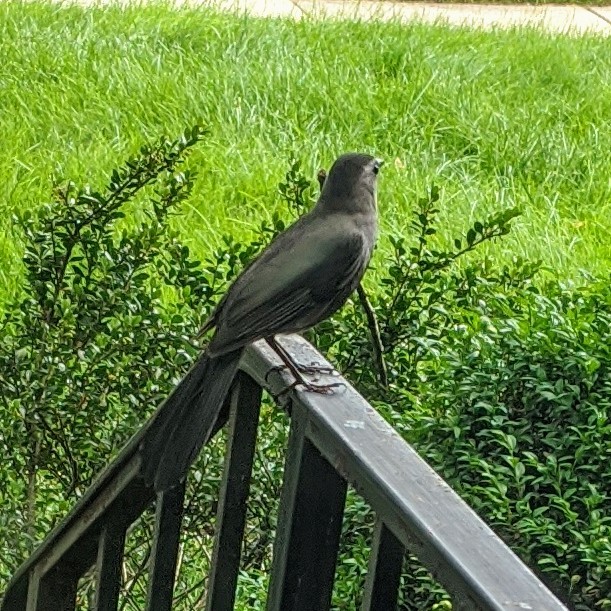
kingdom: Animalia
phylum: Chordata
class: Aves
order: Passeriformes
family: Mimidae
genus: Dumetella
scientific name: Dumetella carolinensis
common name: Gray catbird
